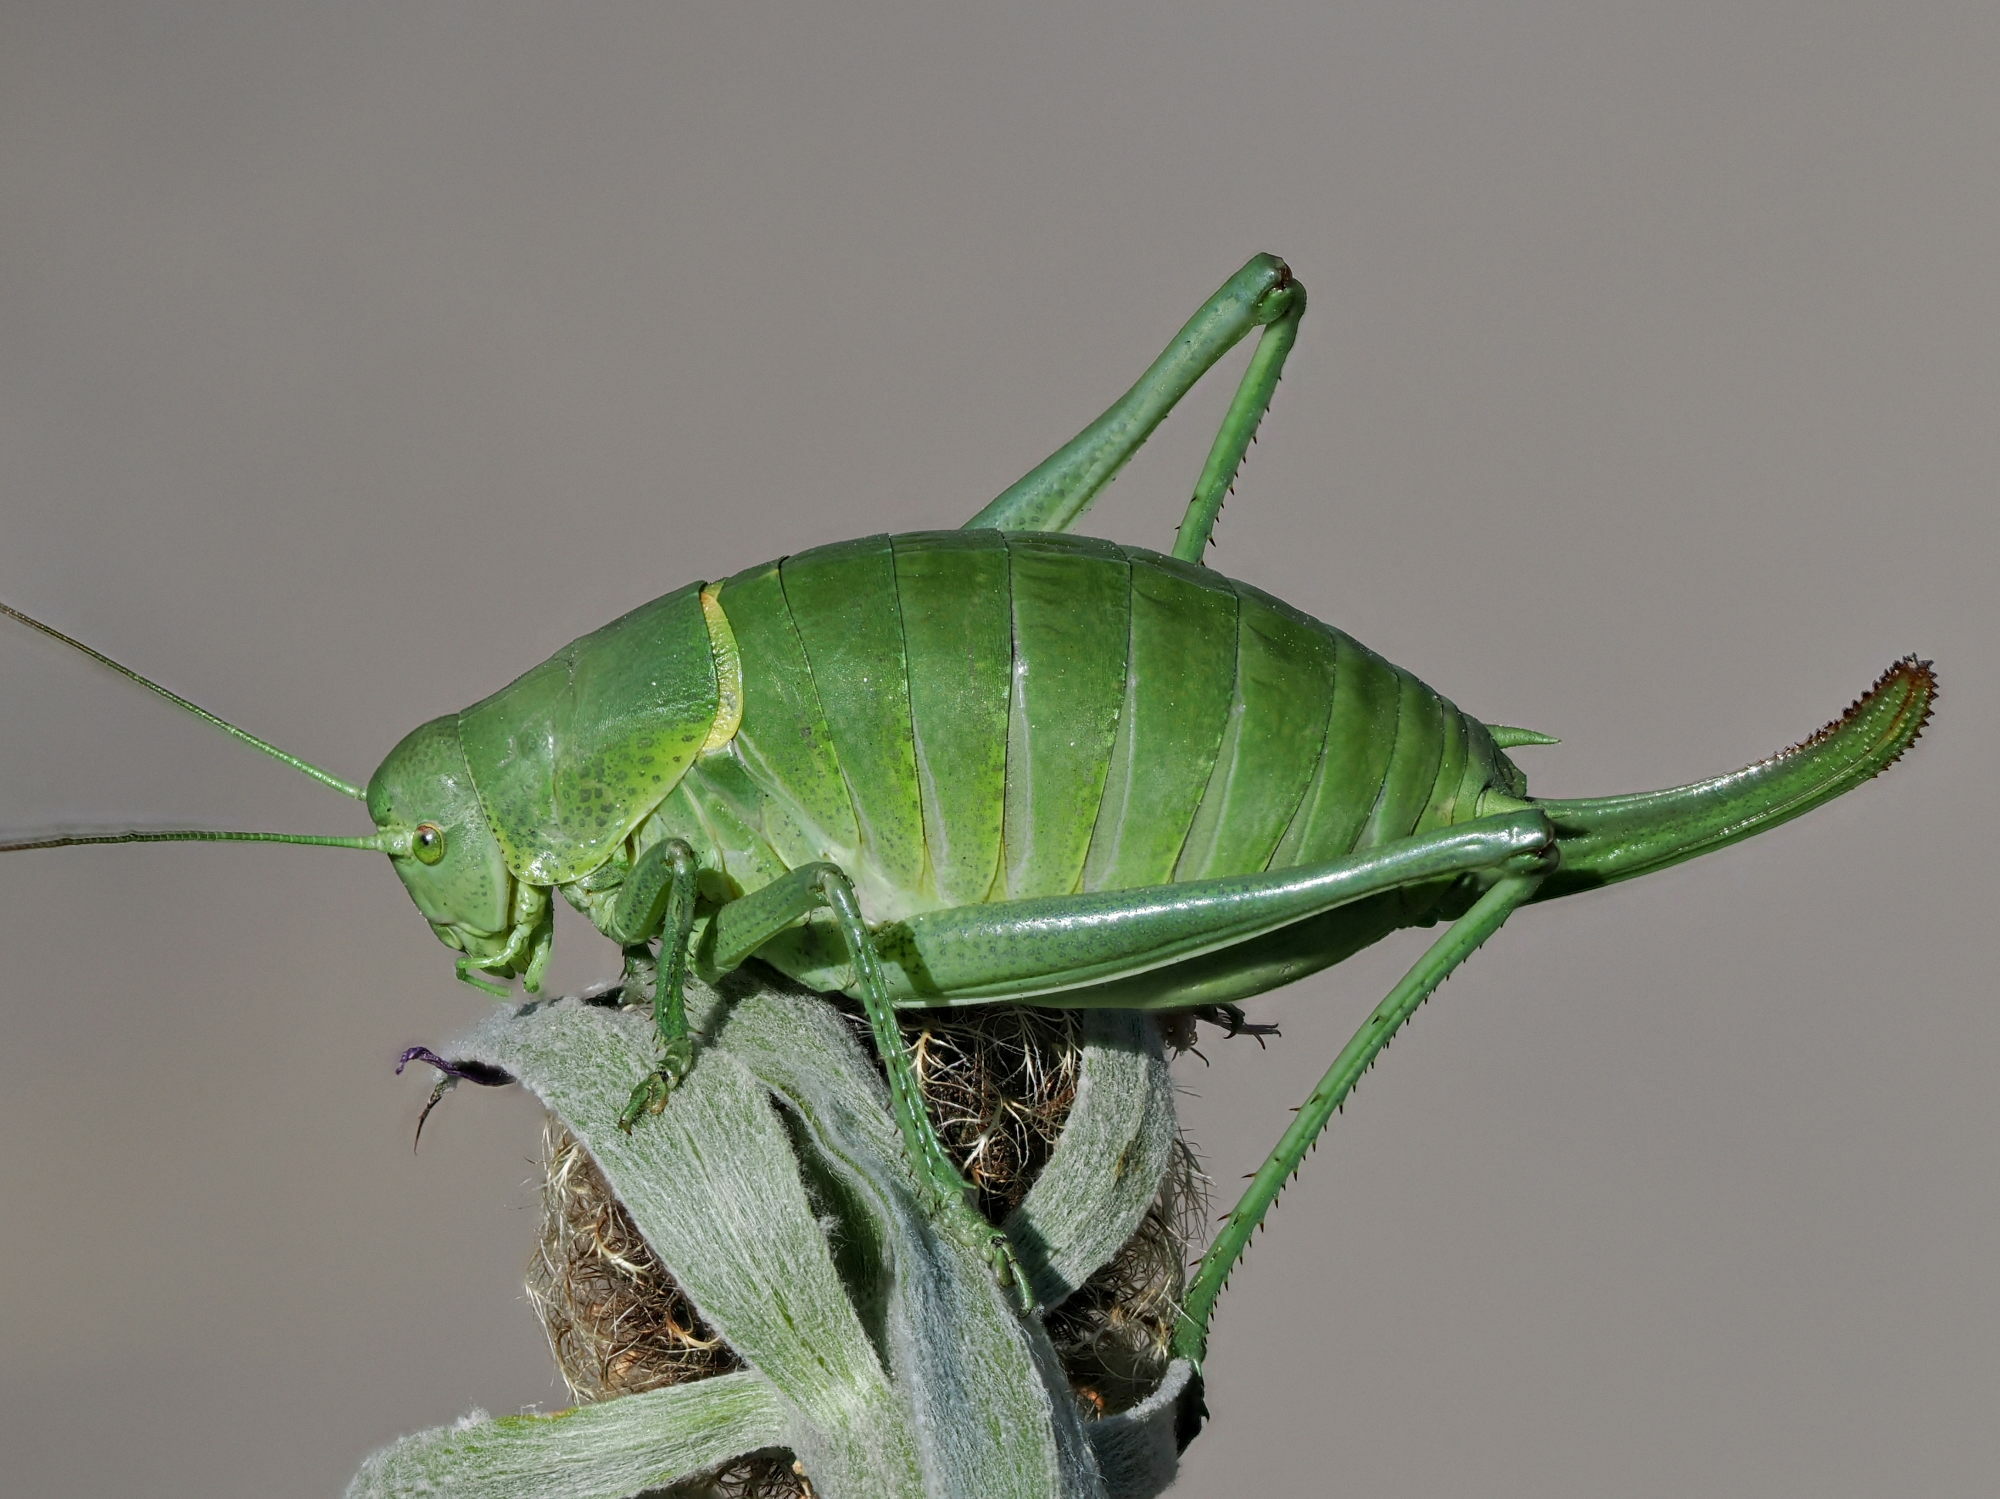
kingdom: Animalia
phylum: Arthropoda
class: Insecta
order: Orthoptera
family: Tettigoniidae
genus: Polysarcus
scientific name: Polysarcus denticauda
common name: Large saw-tailed bush-cricket
